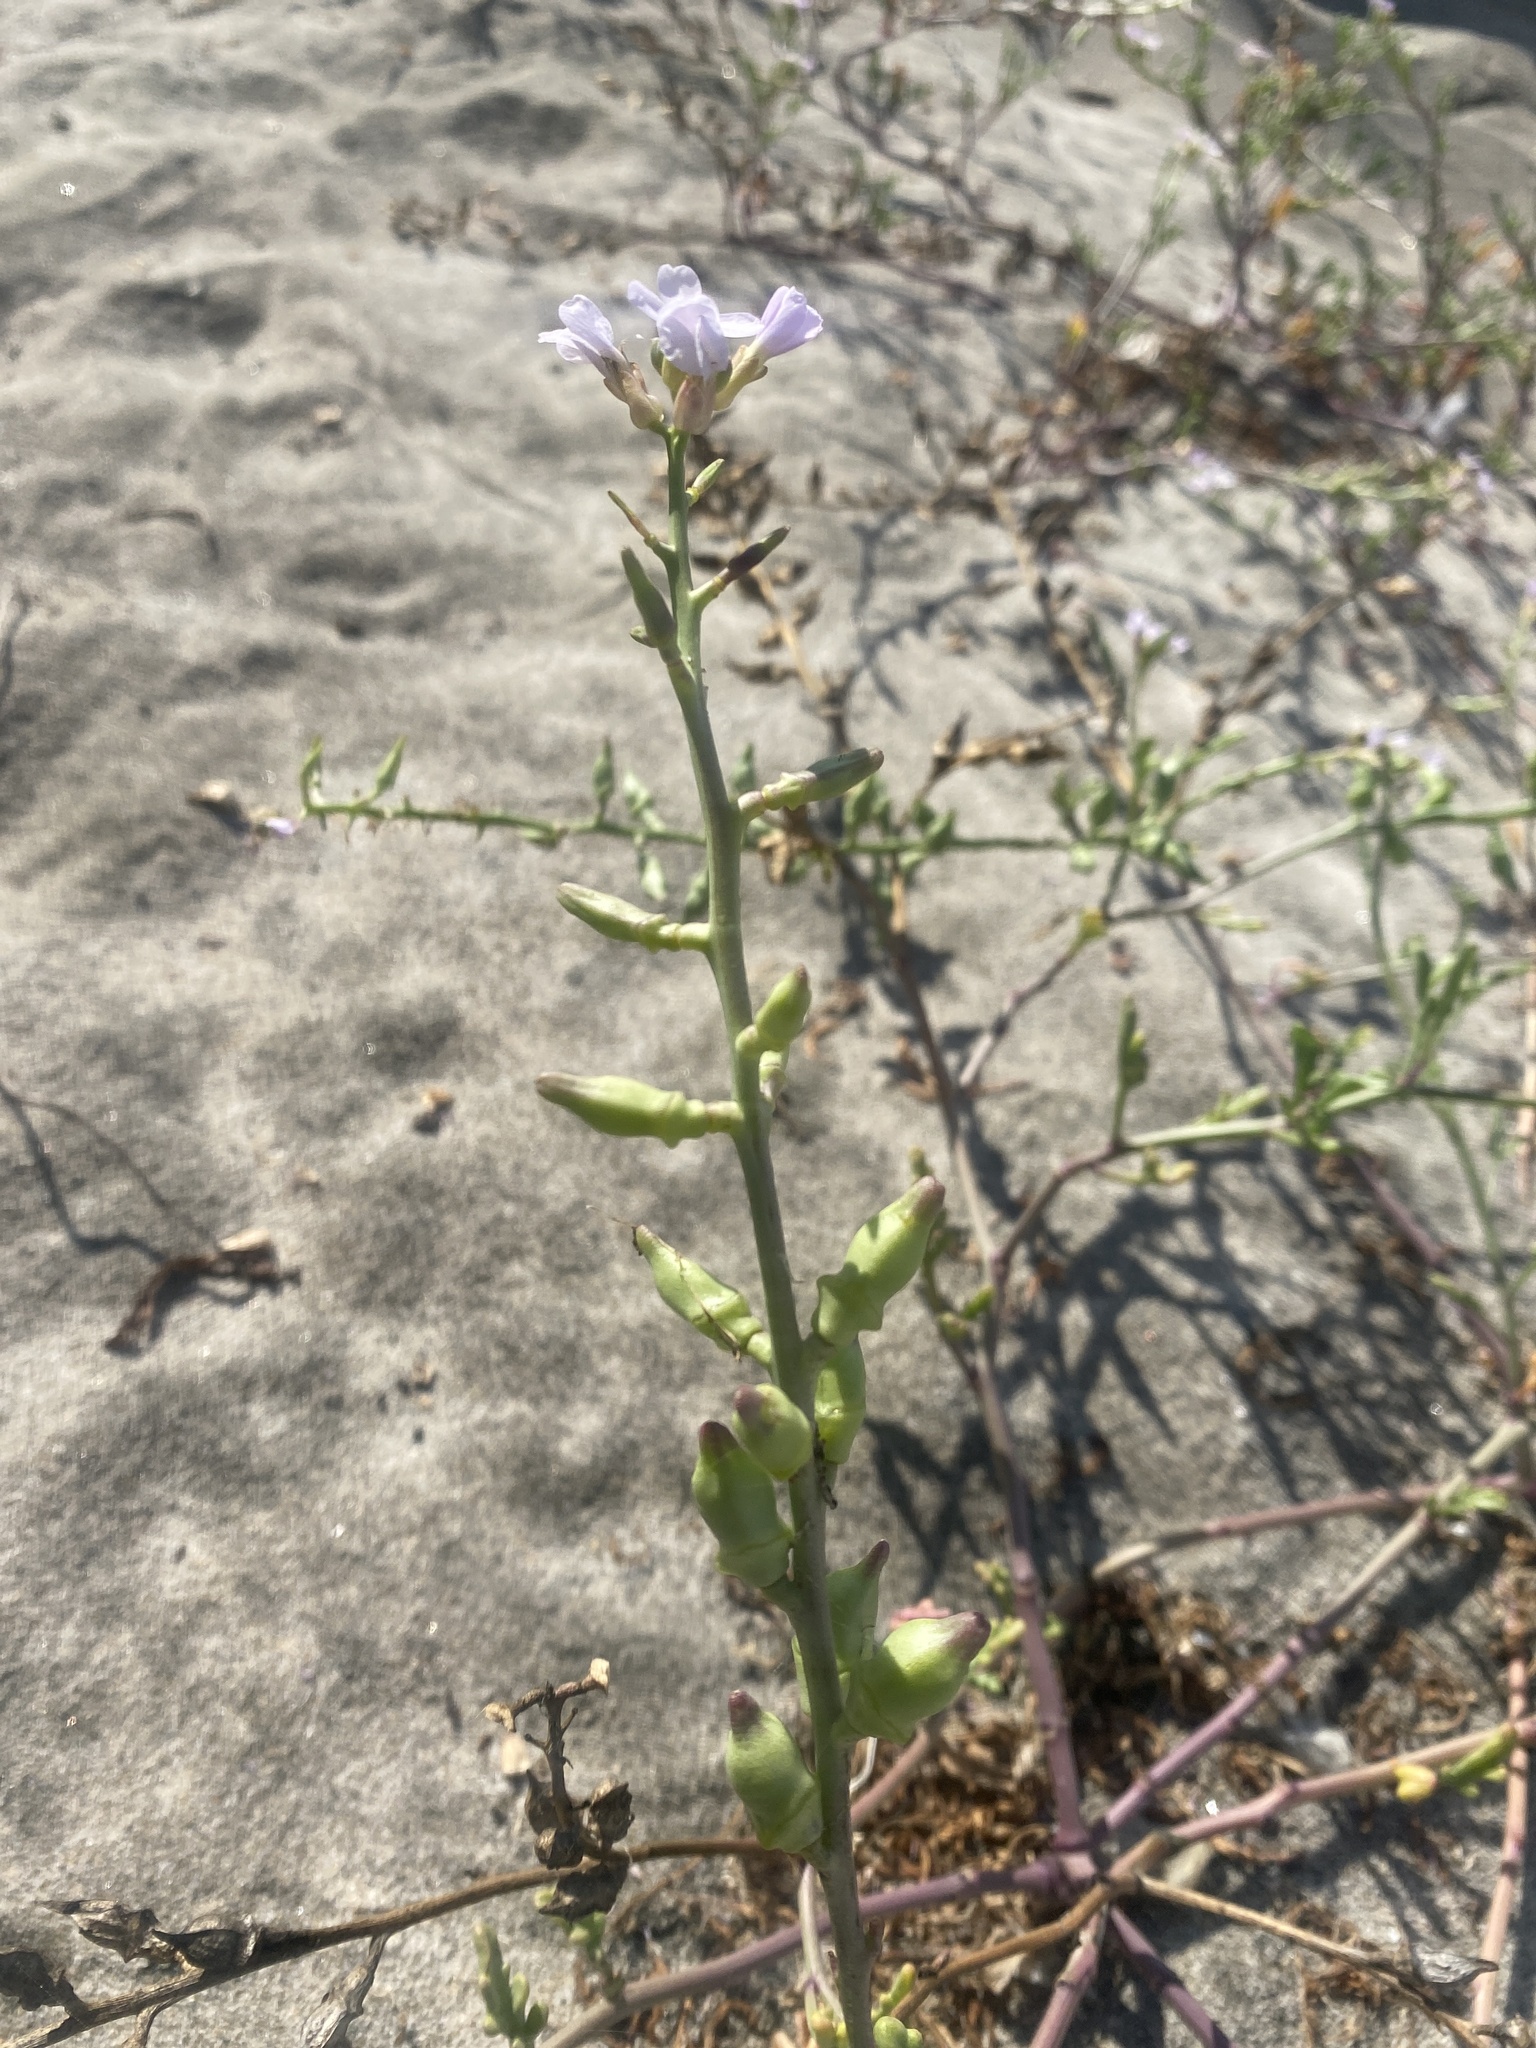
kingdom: Plantae
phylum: Tracheophyta
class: Magnoliopsida
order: Brassicales
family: Brassicaceae
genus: Cakile
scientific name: Cakile maritima
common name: Sea rocket
